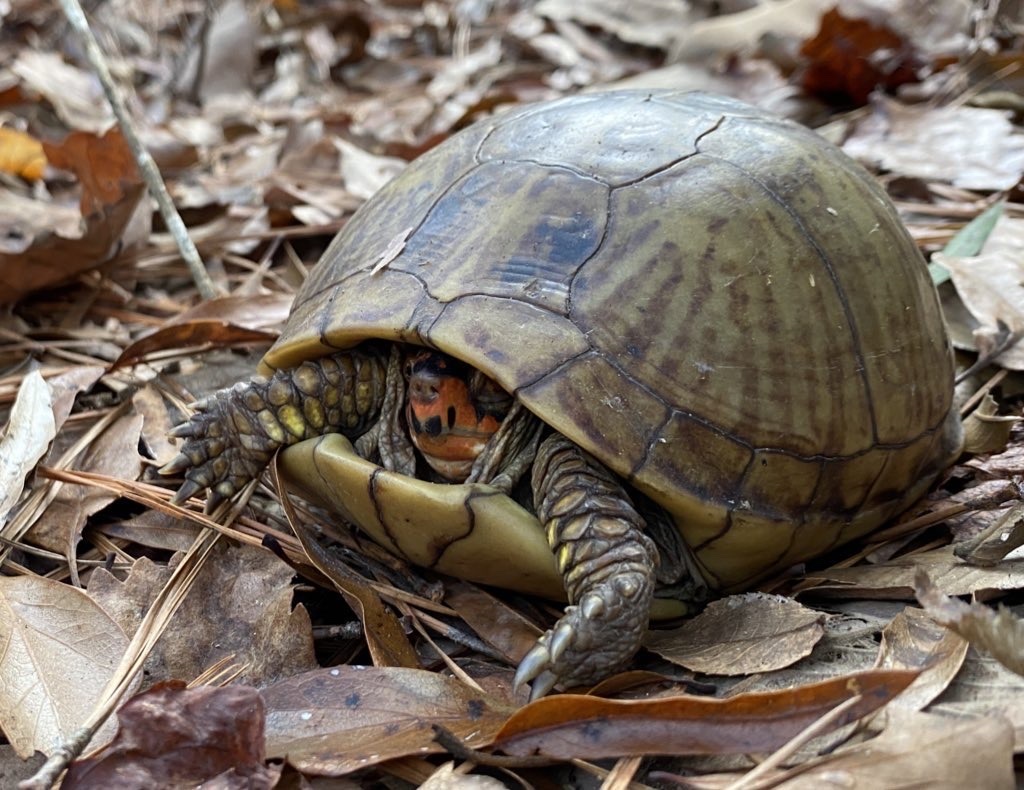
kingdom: Animalia
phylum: Chordata
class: Testudines
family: Emydidae
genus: Terrapene
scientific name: Terrapene carolina
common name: Common box turtle
